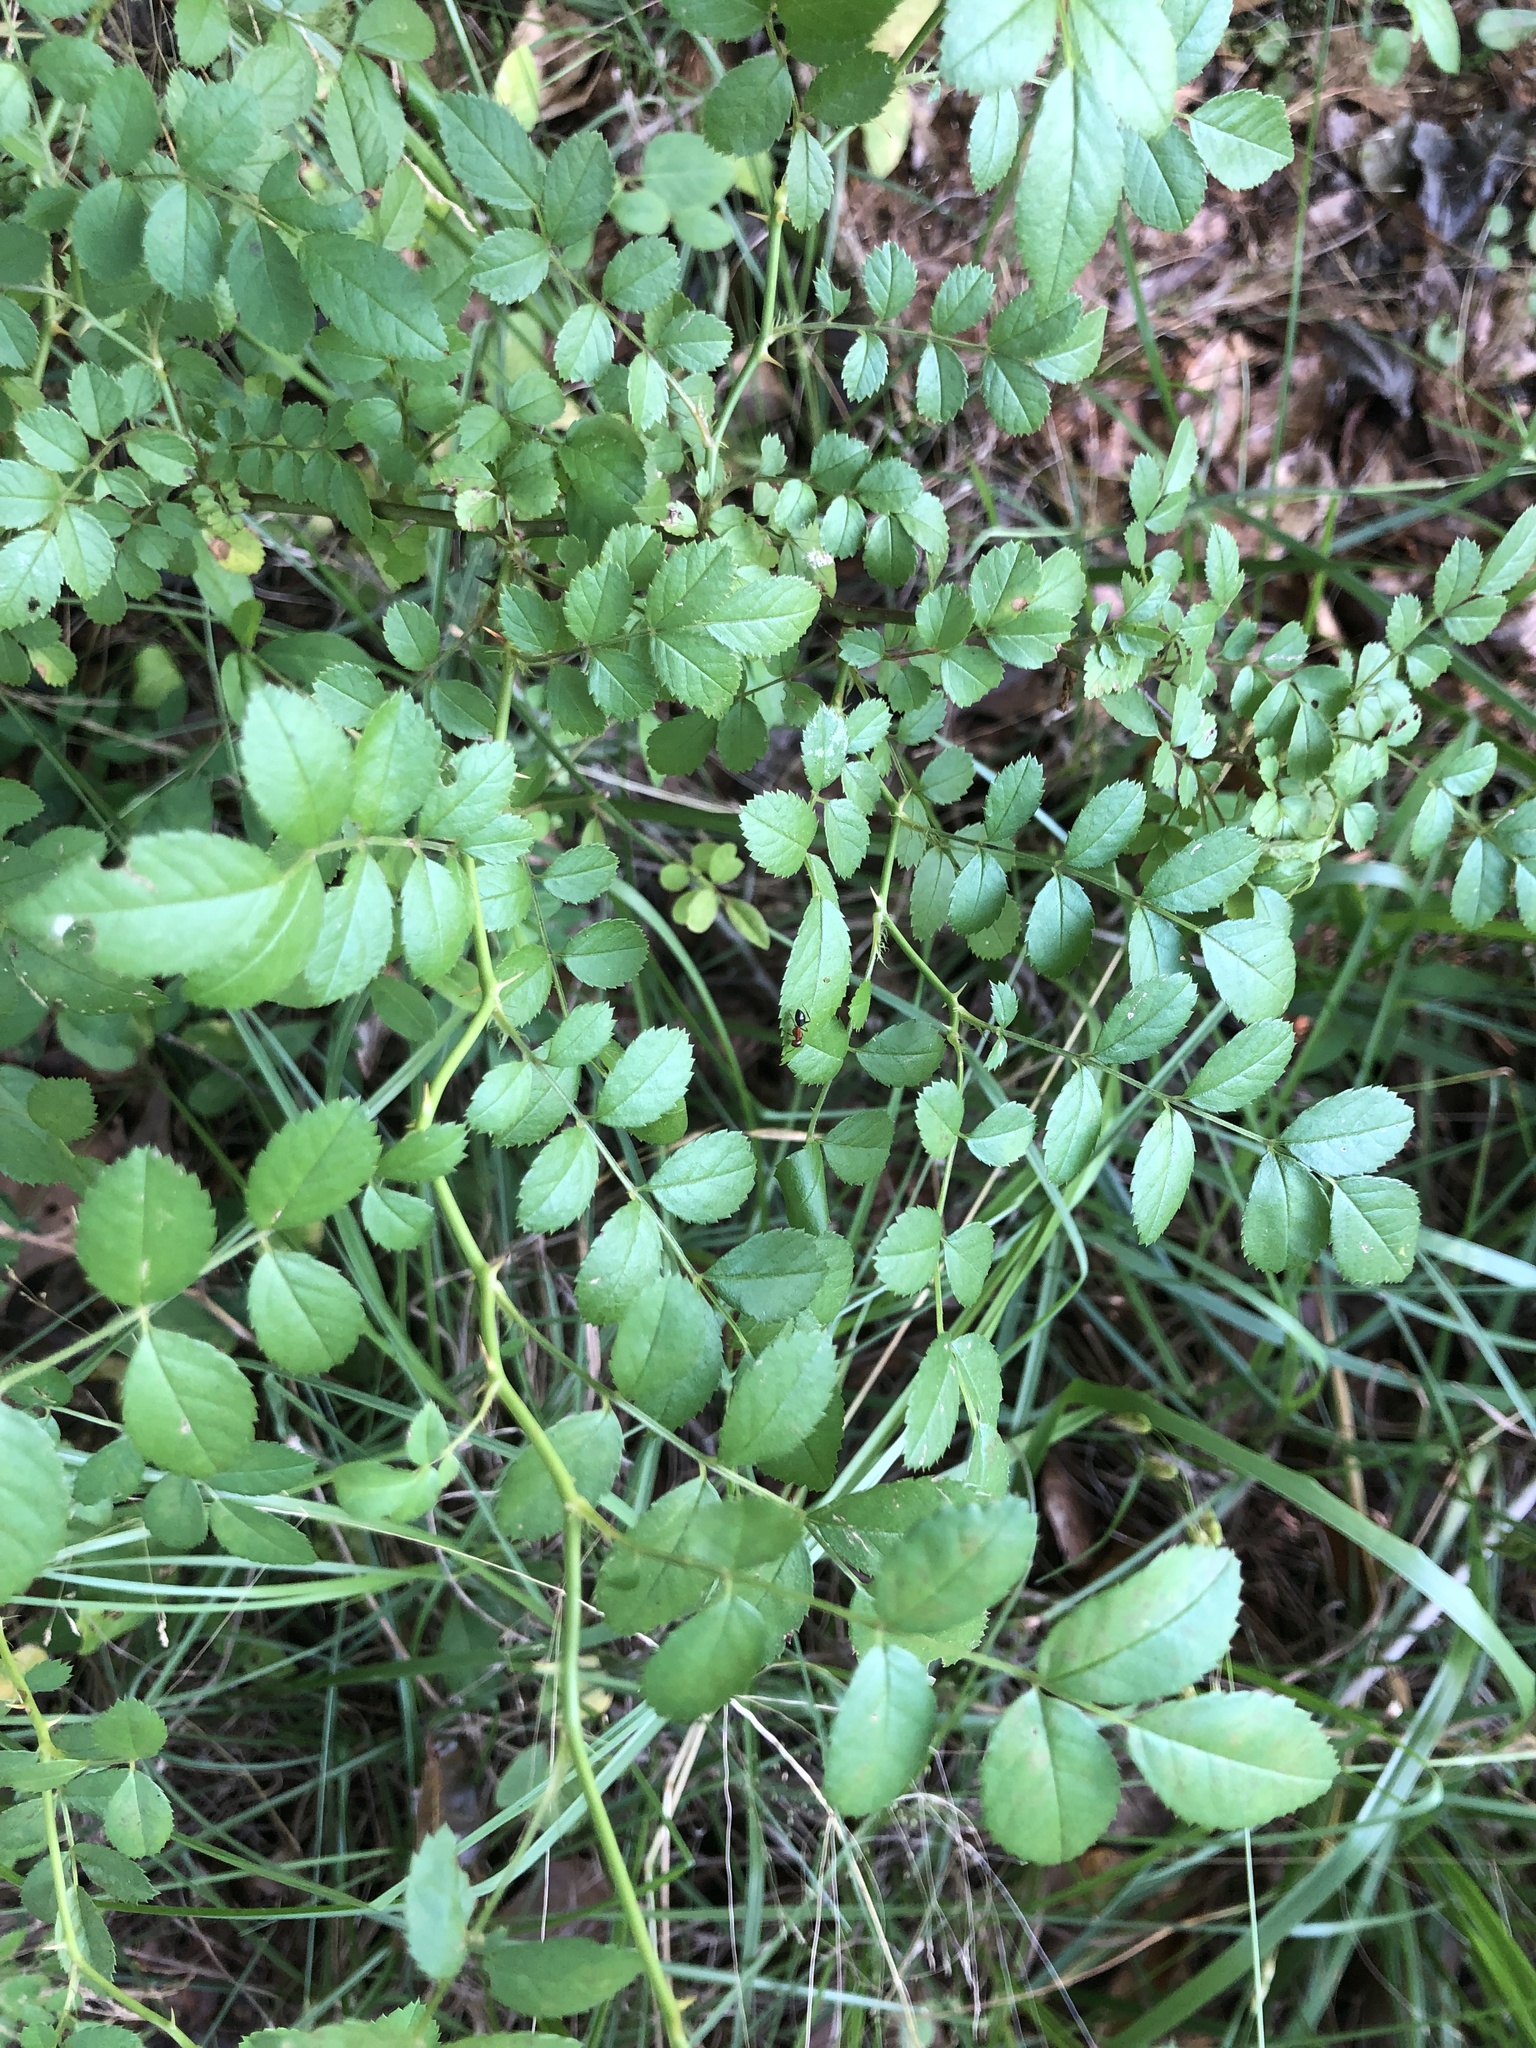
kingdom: Plantae
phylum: Tracheophyta
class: Magnoliopsida
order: Rosales
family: Rosaceae
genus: Rosa
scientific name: Rosa multiflora
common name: Multiflora rose
